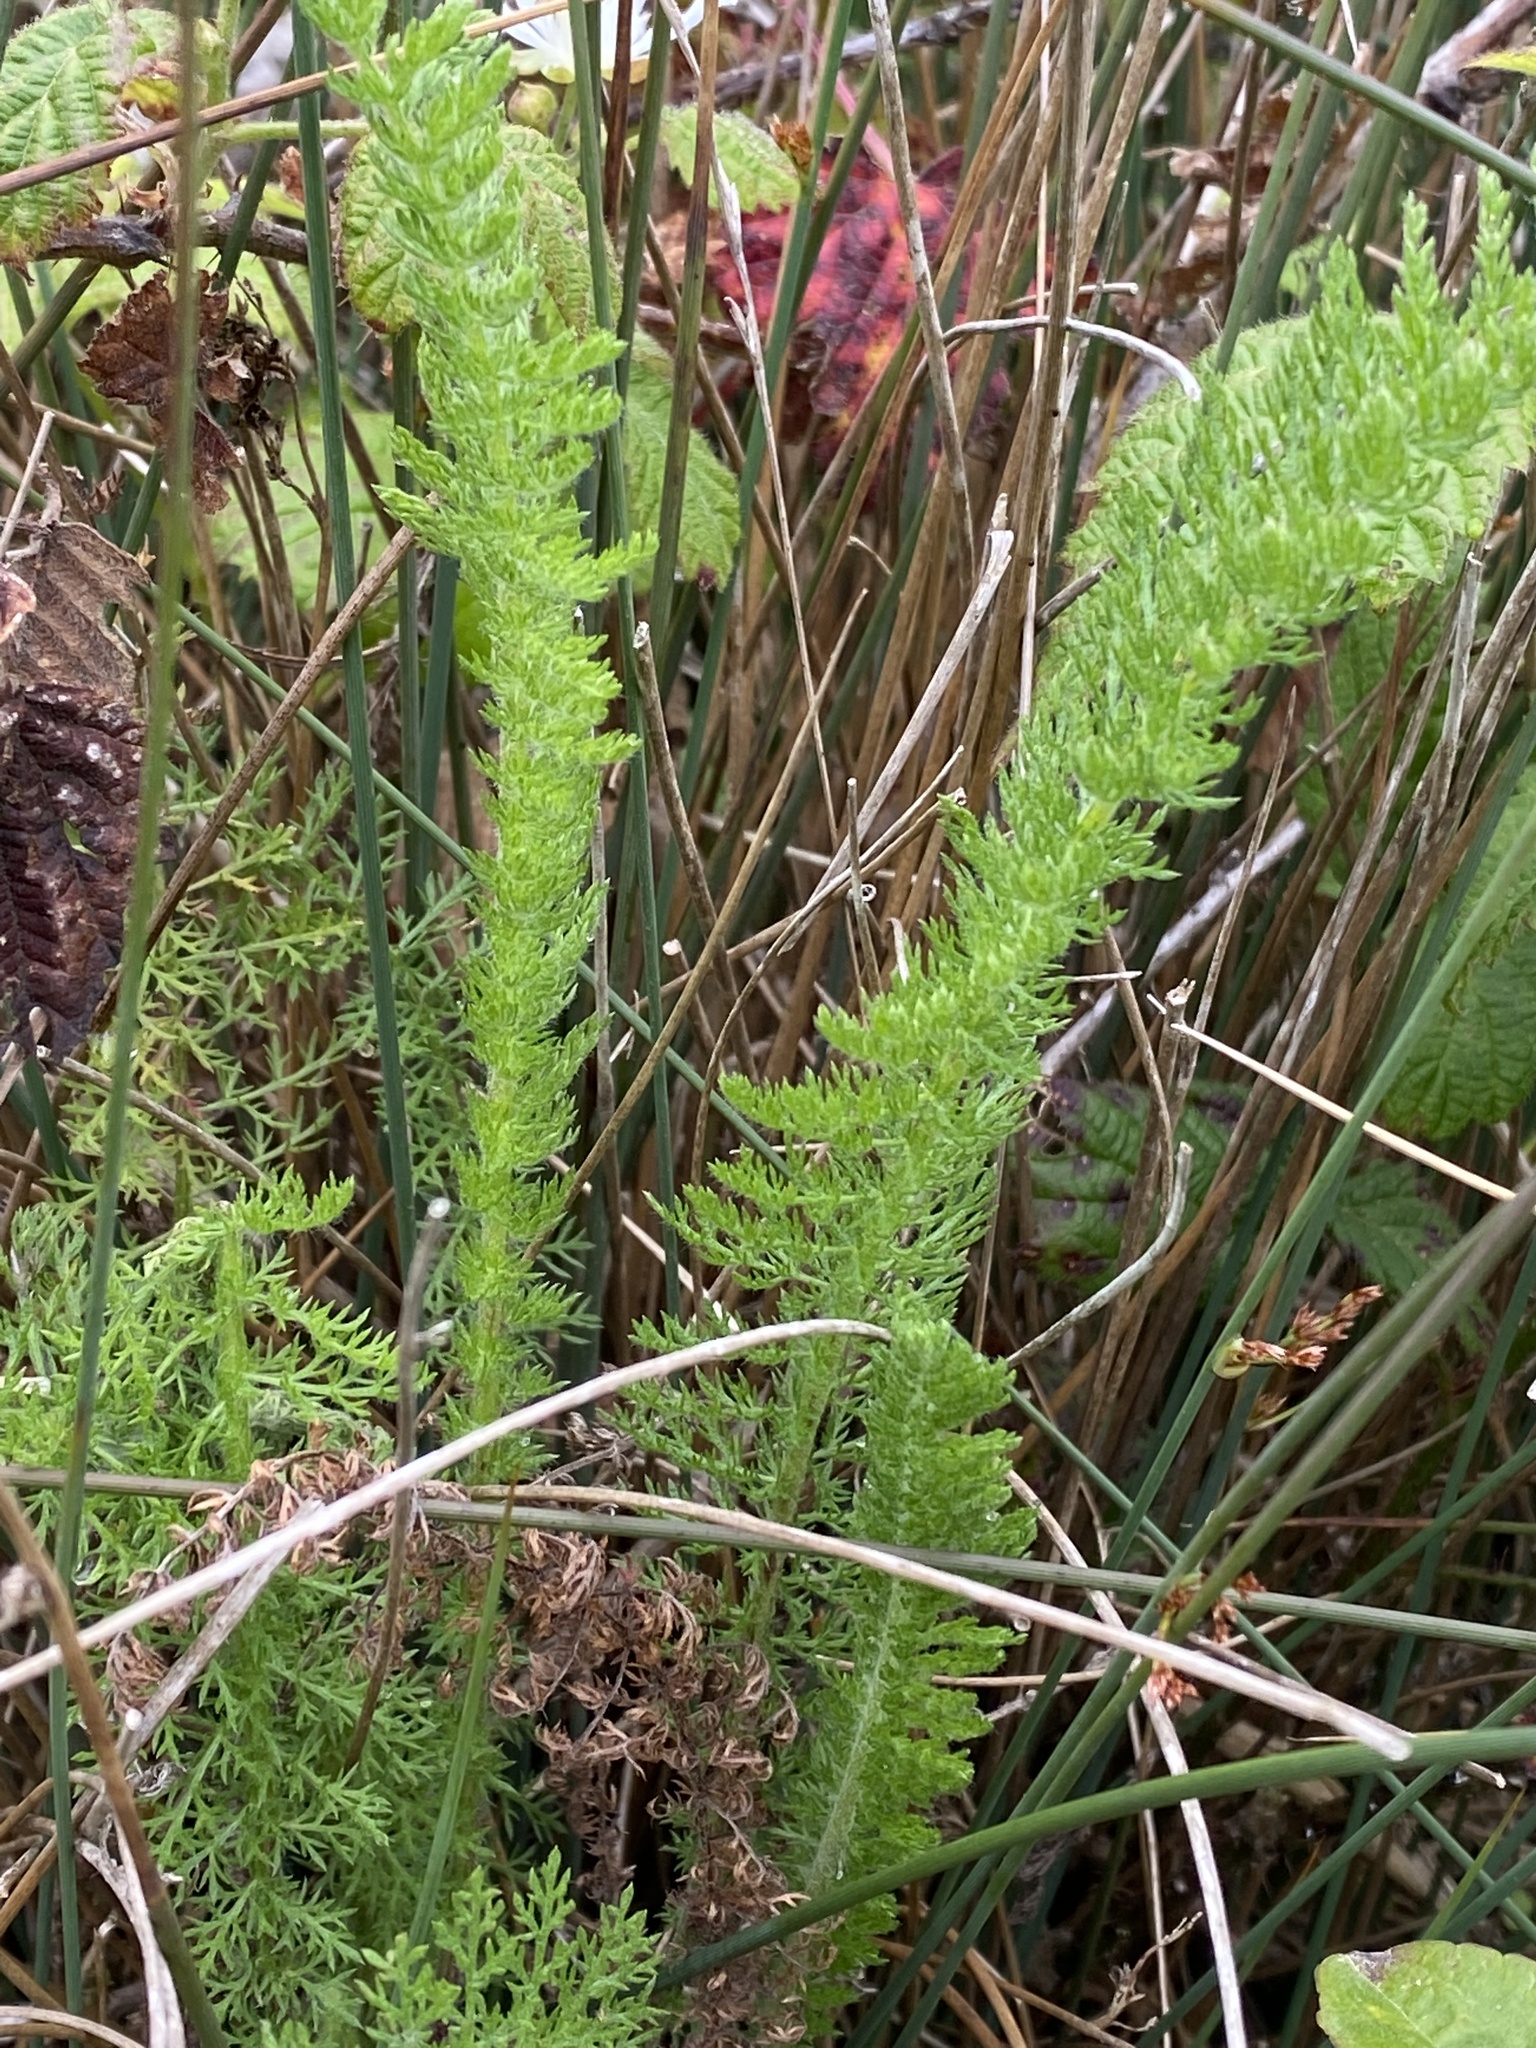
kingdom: Plantae
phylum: Tracheophyta
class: Magnoliopsida
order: Asterales
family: Asteraceae
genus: Achillea
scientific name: Achillea millefolium
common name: Yarrow
